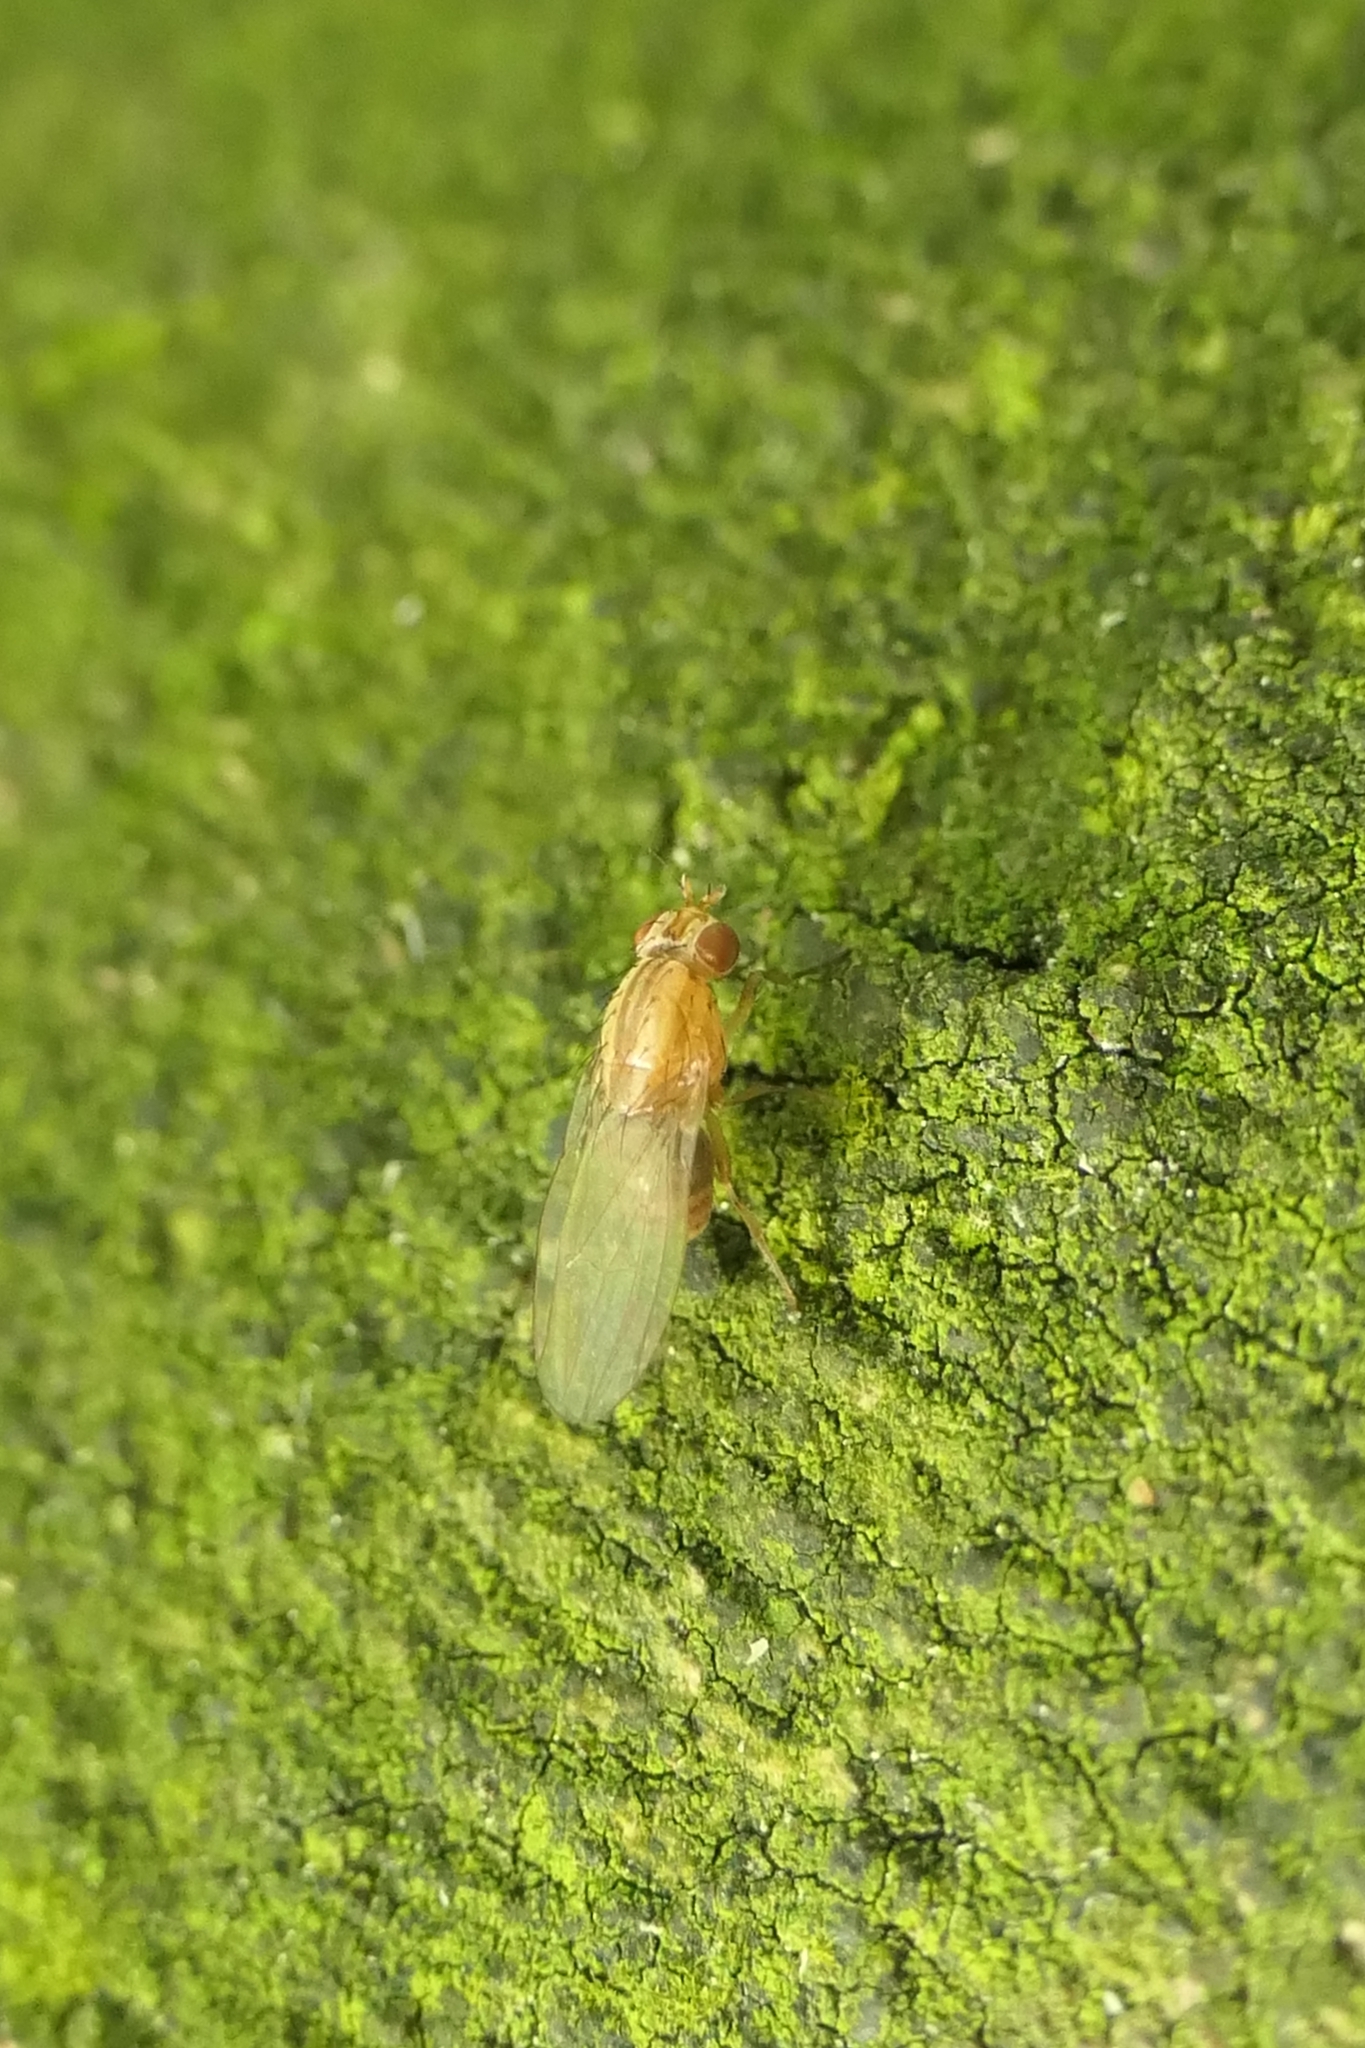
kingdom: Animalia
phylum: Arthropoda
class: Insecta
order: Diptera
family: Lauxaniidae
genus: Sapromyza
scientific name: Sapromyza neozelandica
